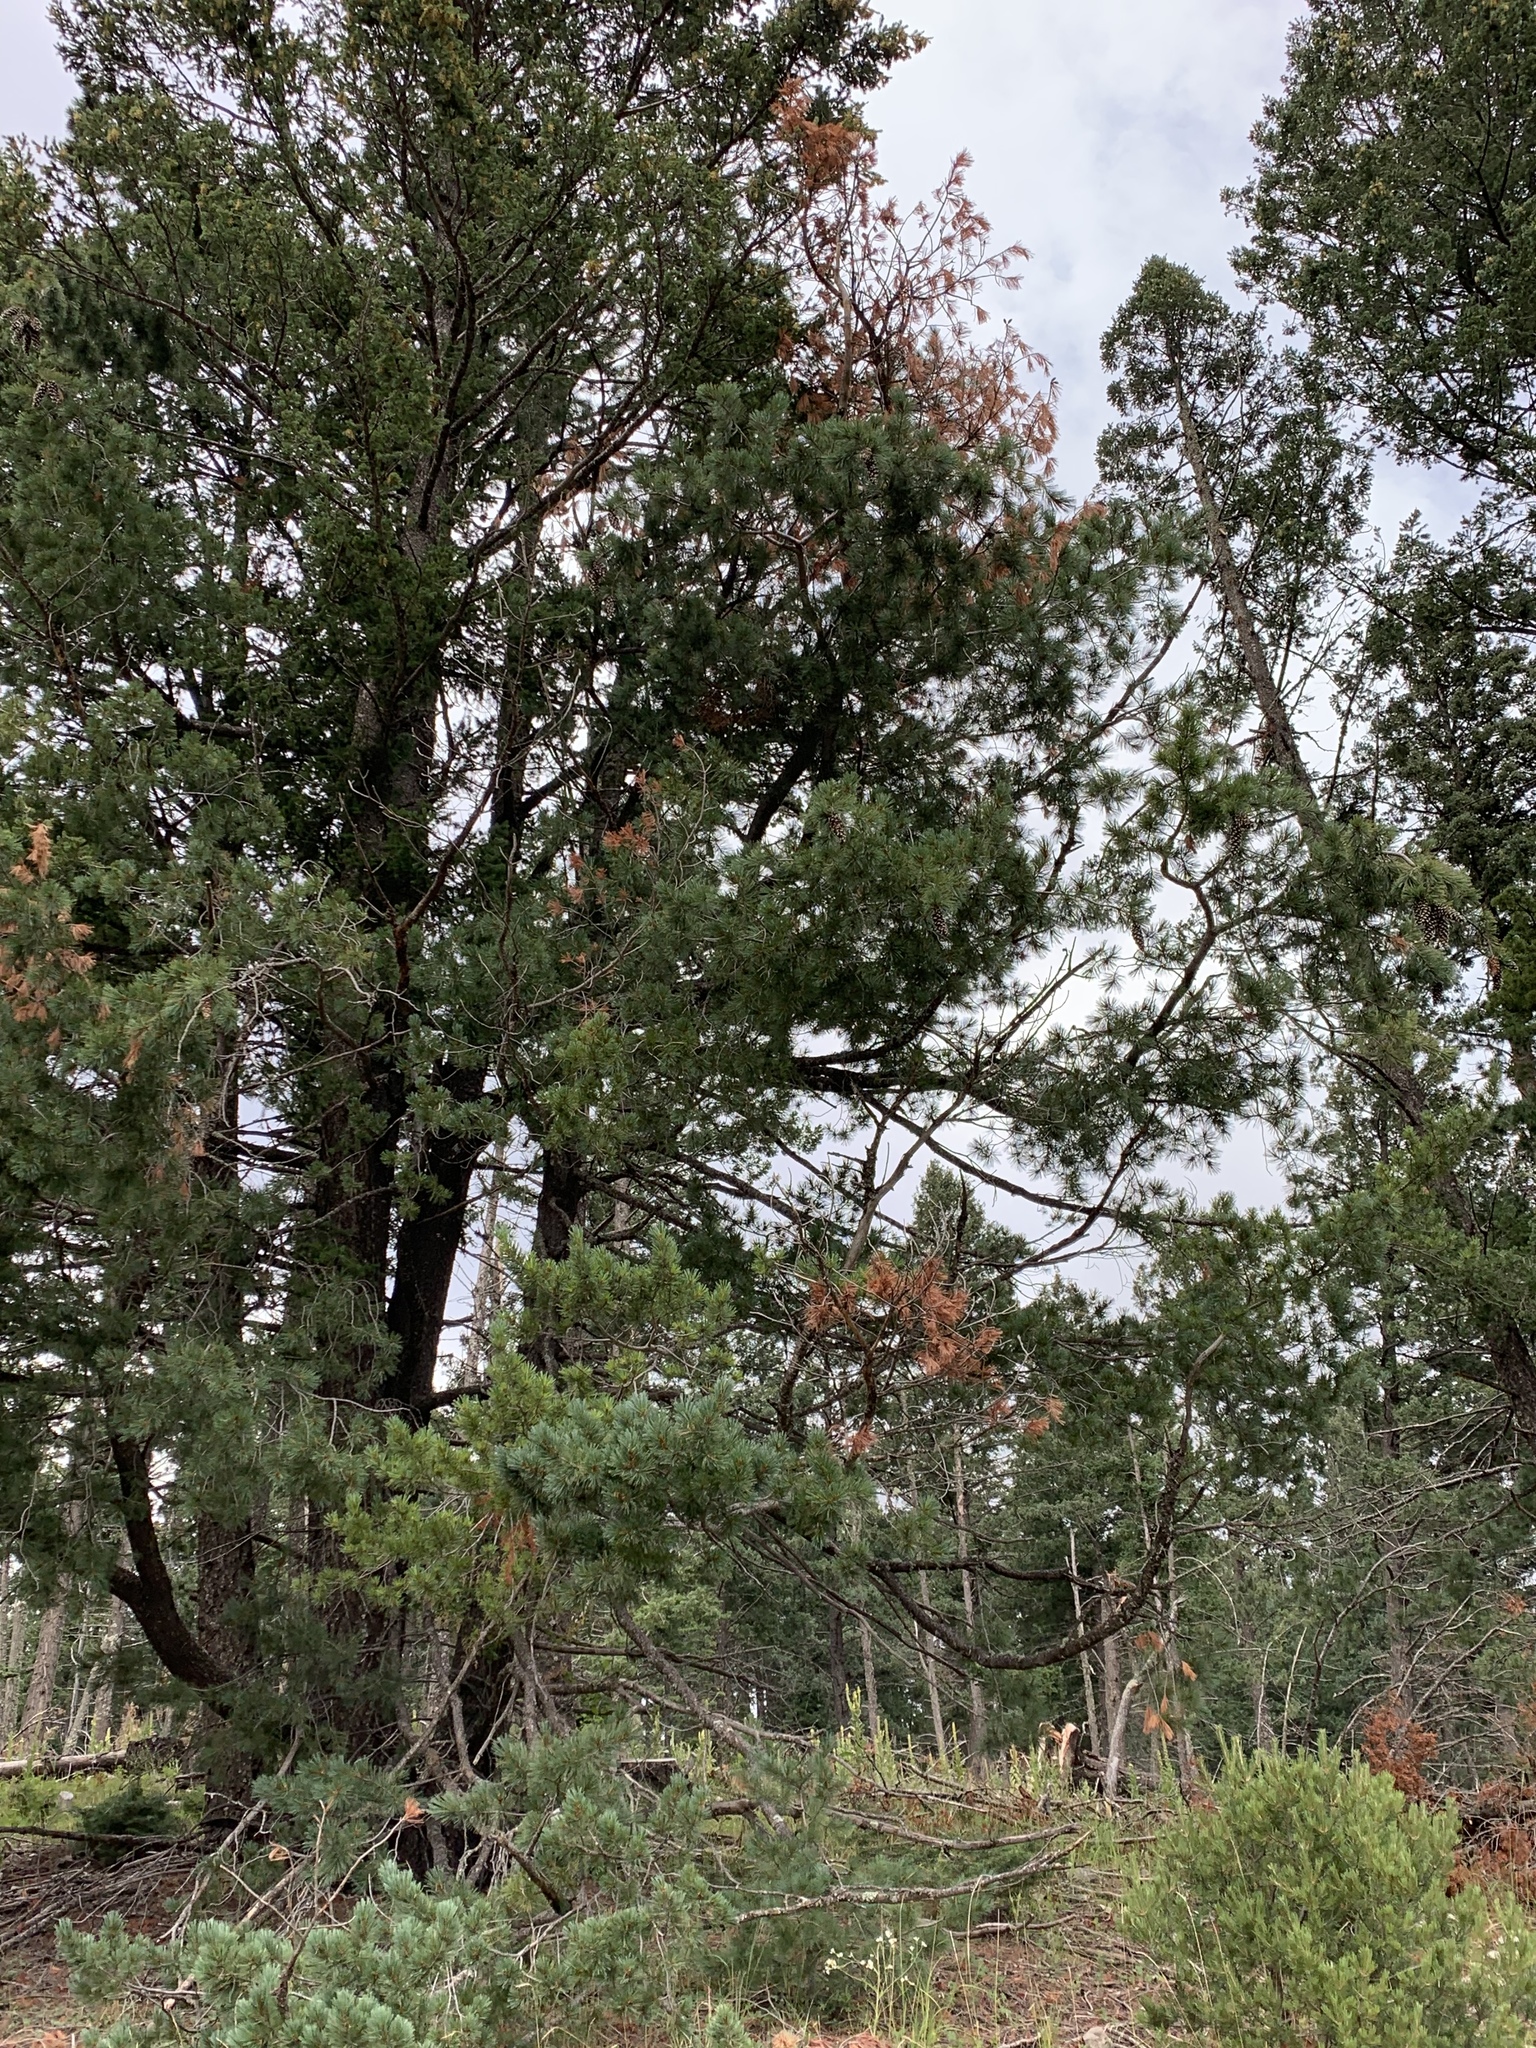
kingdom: Plantae
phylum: Tracheophyta
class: Pinopsida
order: Pinales
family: Pinaceae
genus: Pinus
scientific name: Pinus strobiformis
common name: Southwestern white pine
